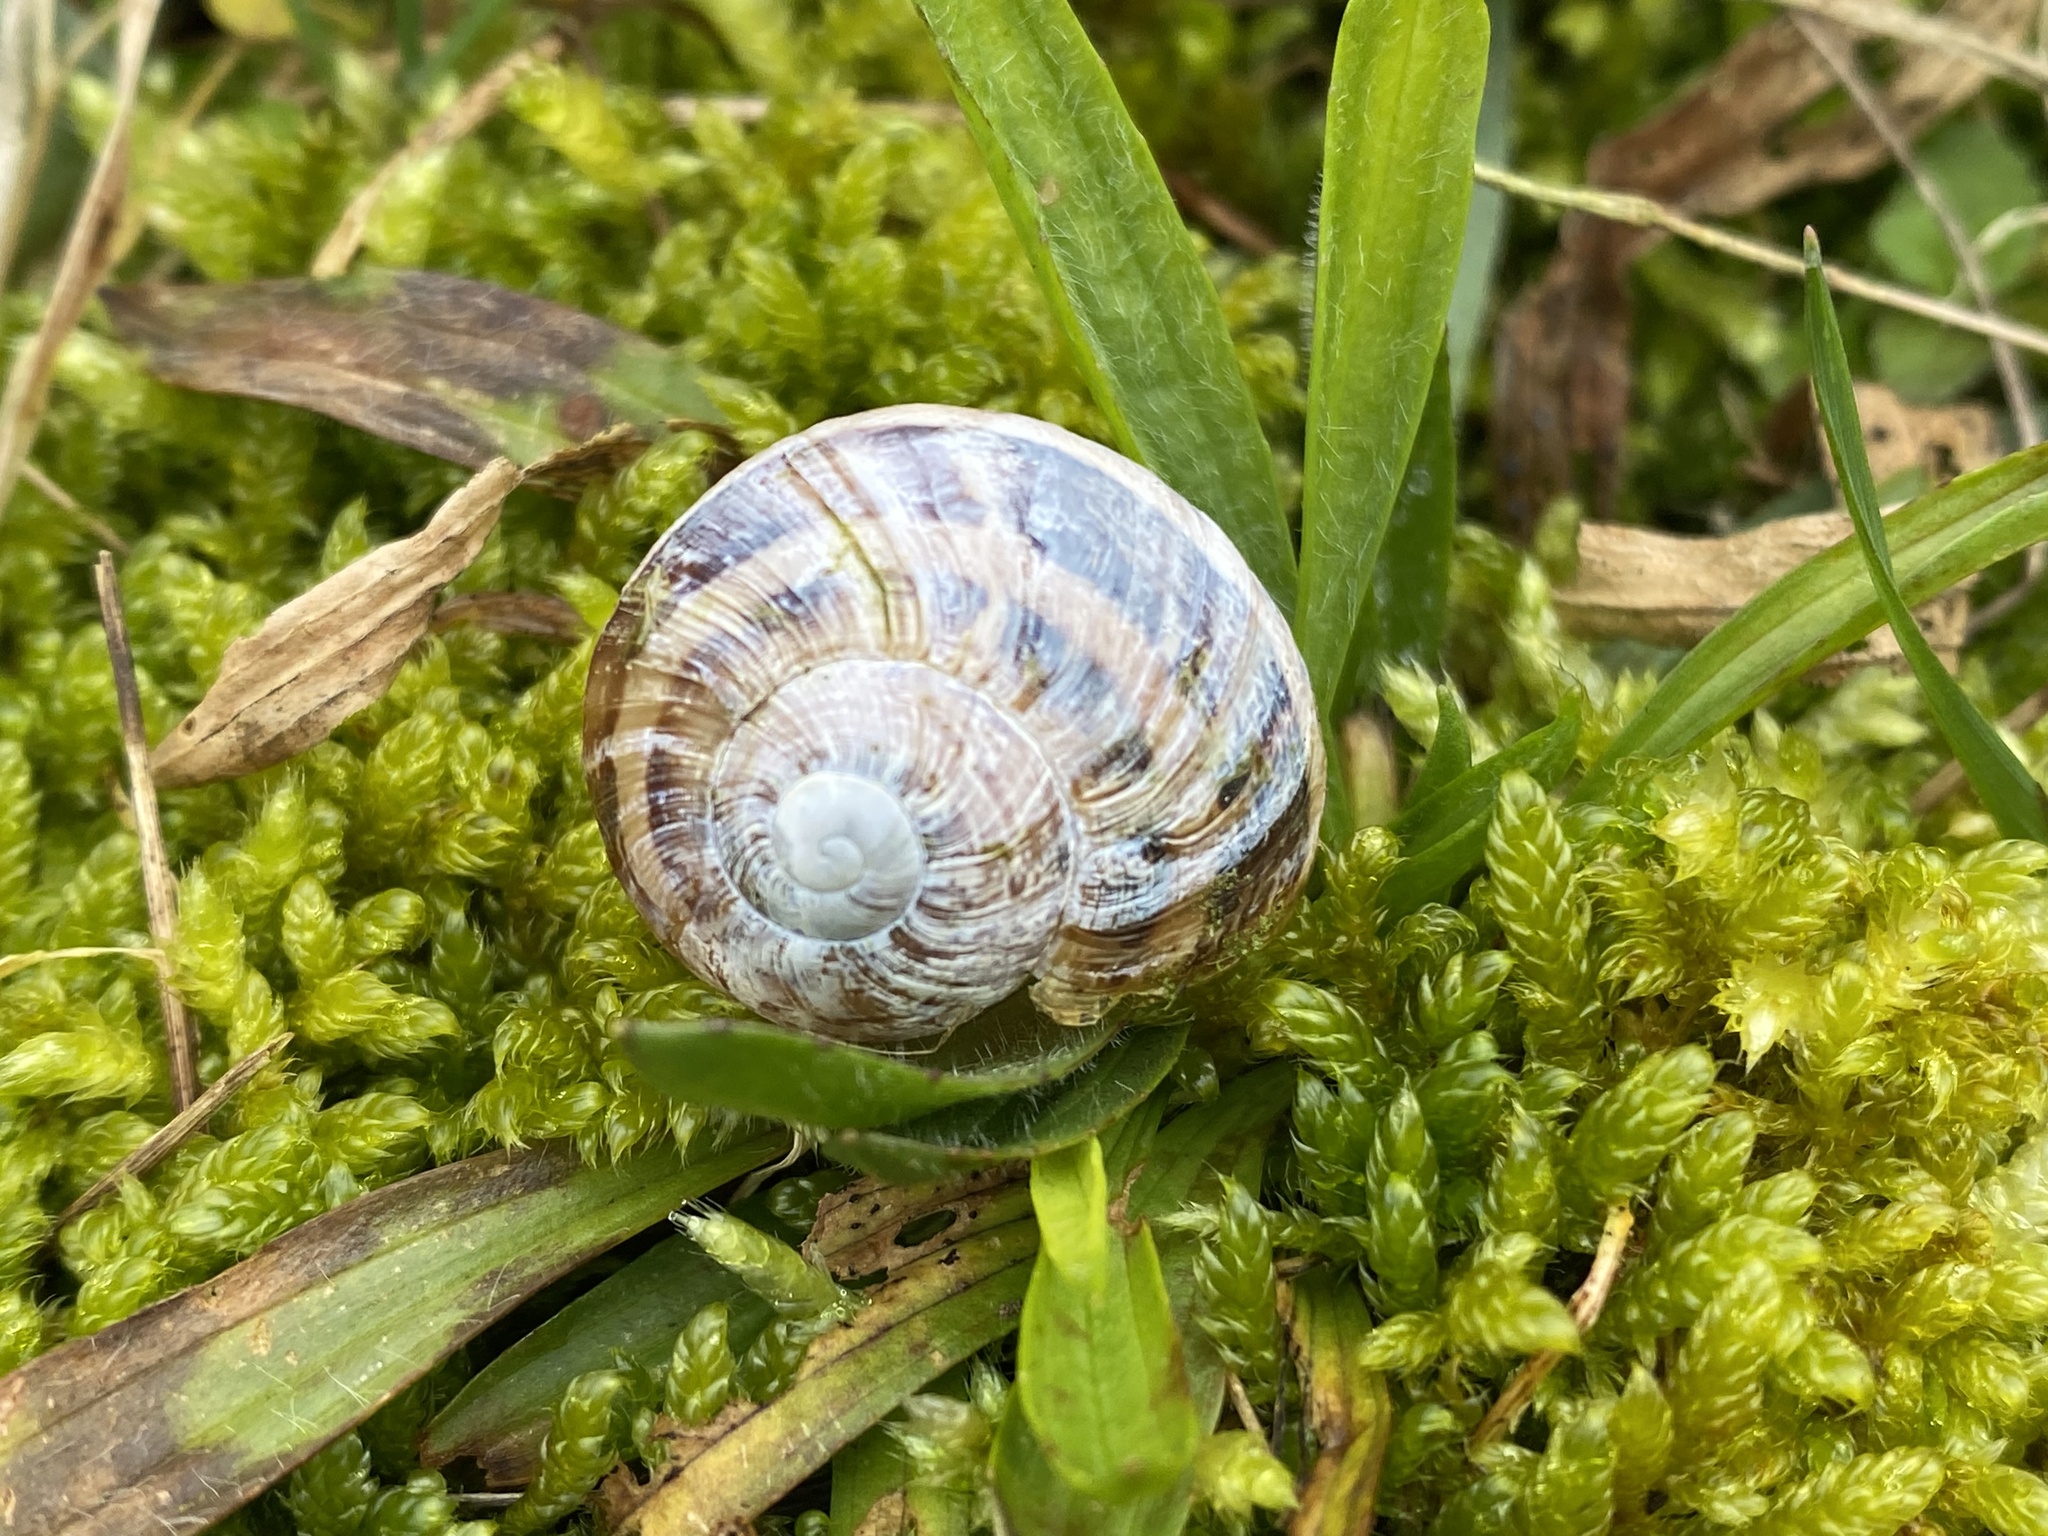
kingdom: Animalia
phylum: Mollusca
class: Gastropoda
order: Stylommatophora
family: Helicidae
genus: Cornu
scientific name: Cornu aspersum
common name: Brown garden snail
